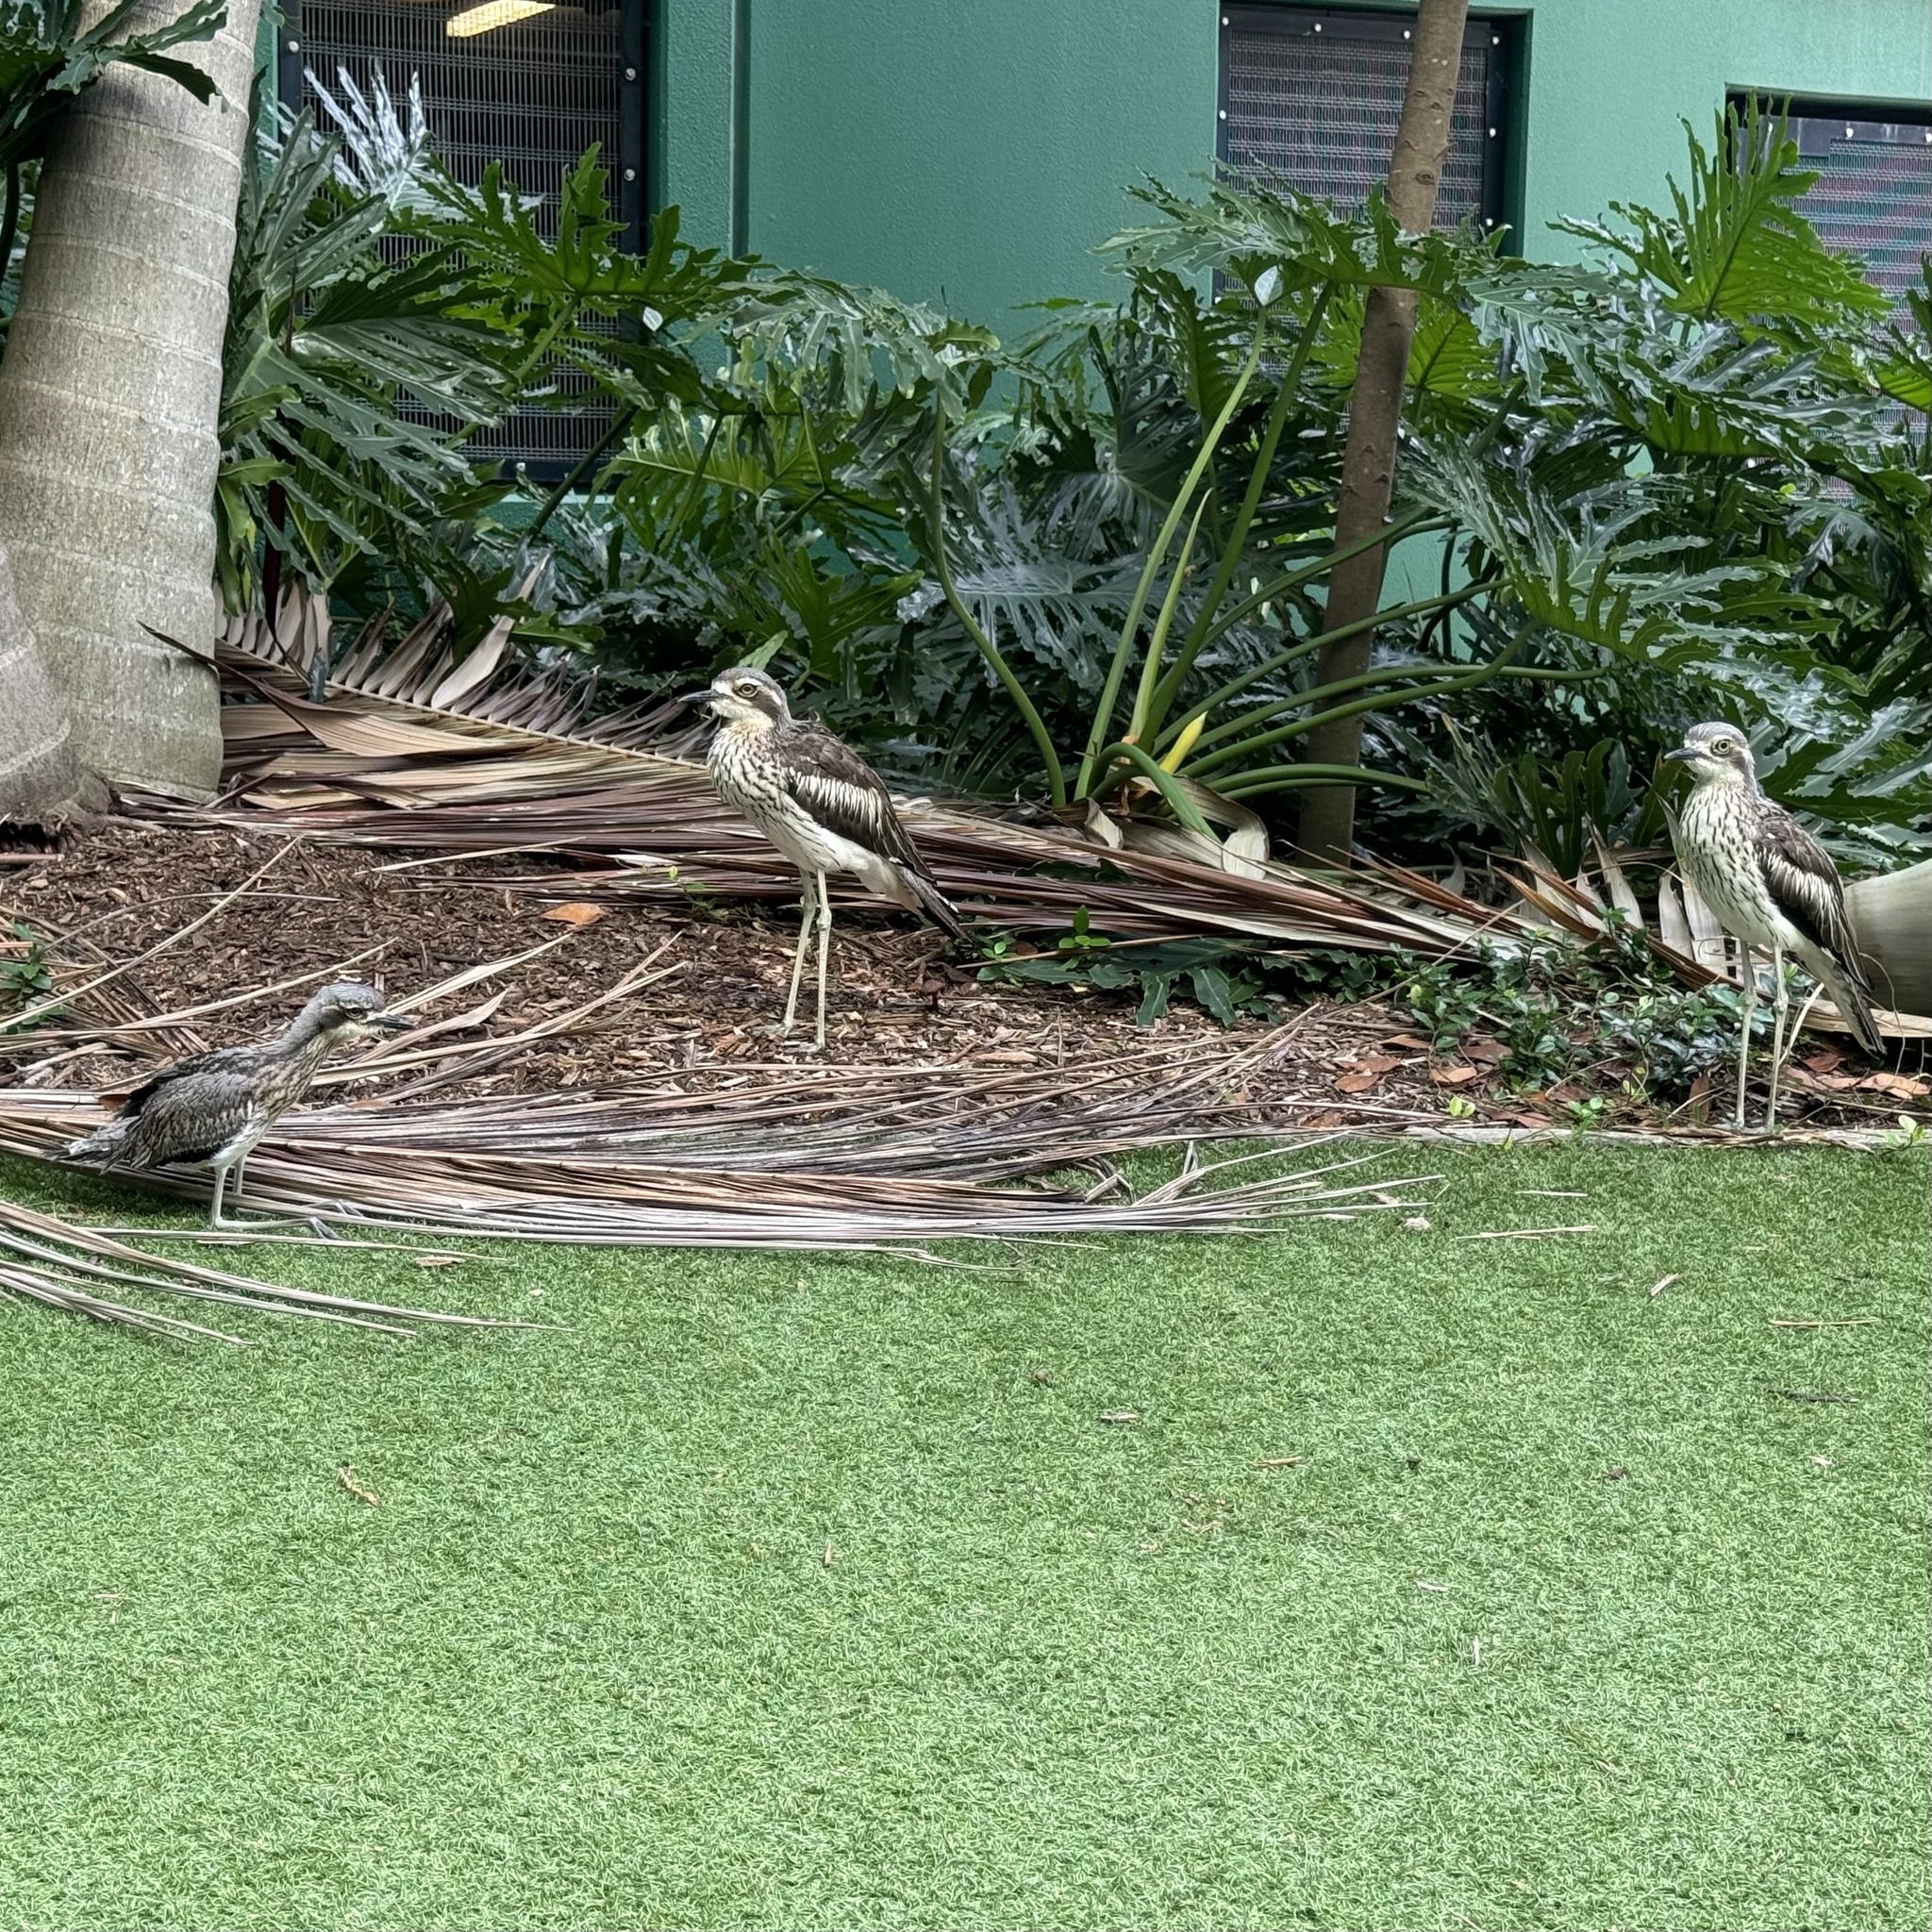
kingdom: Animalia
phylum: Chordata
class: Aves
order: Charadriiformes
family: Burhinidae
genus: Burhinus
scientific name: Burhinus grallarius
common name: Bush stone-curlew
